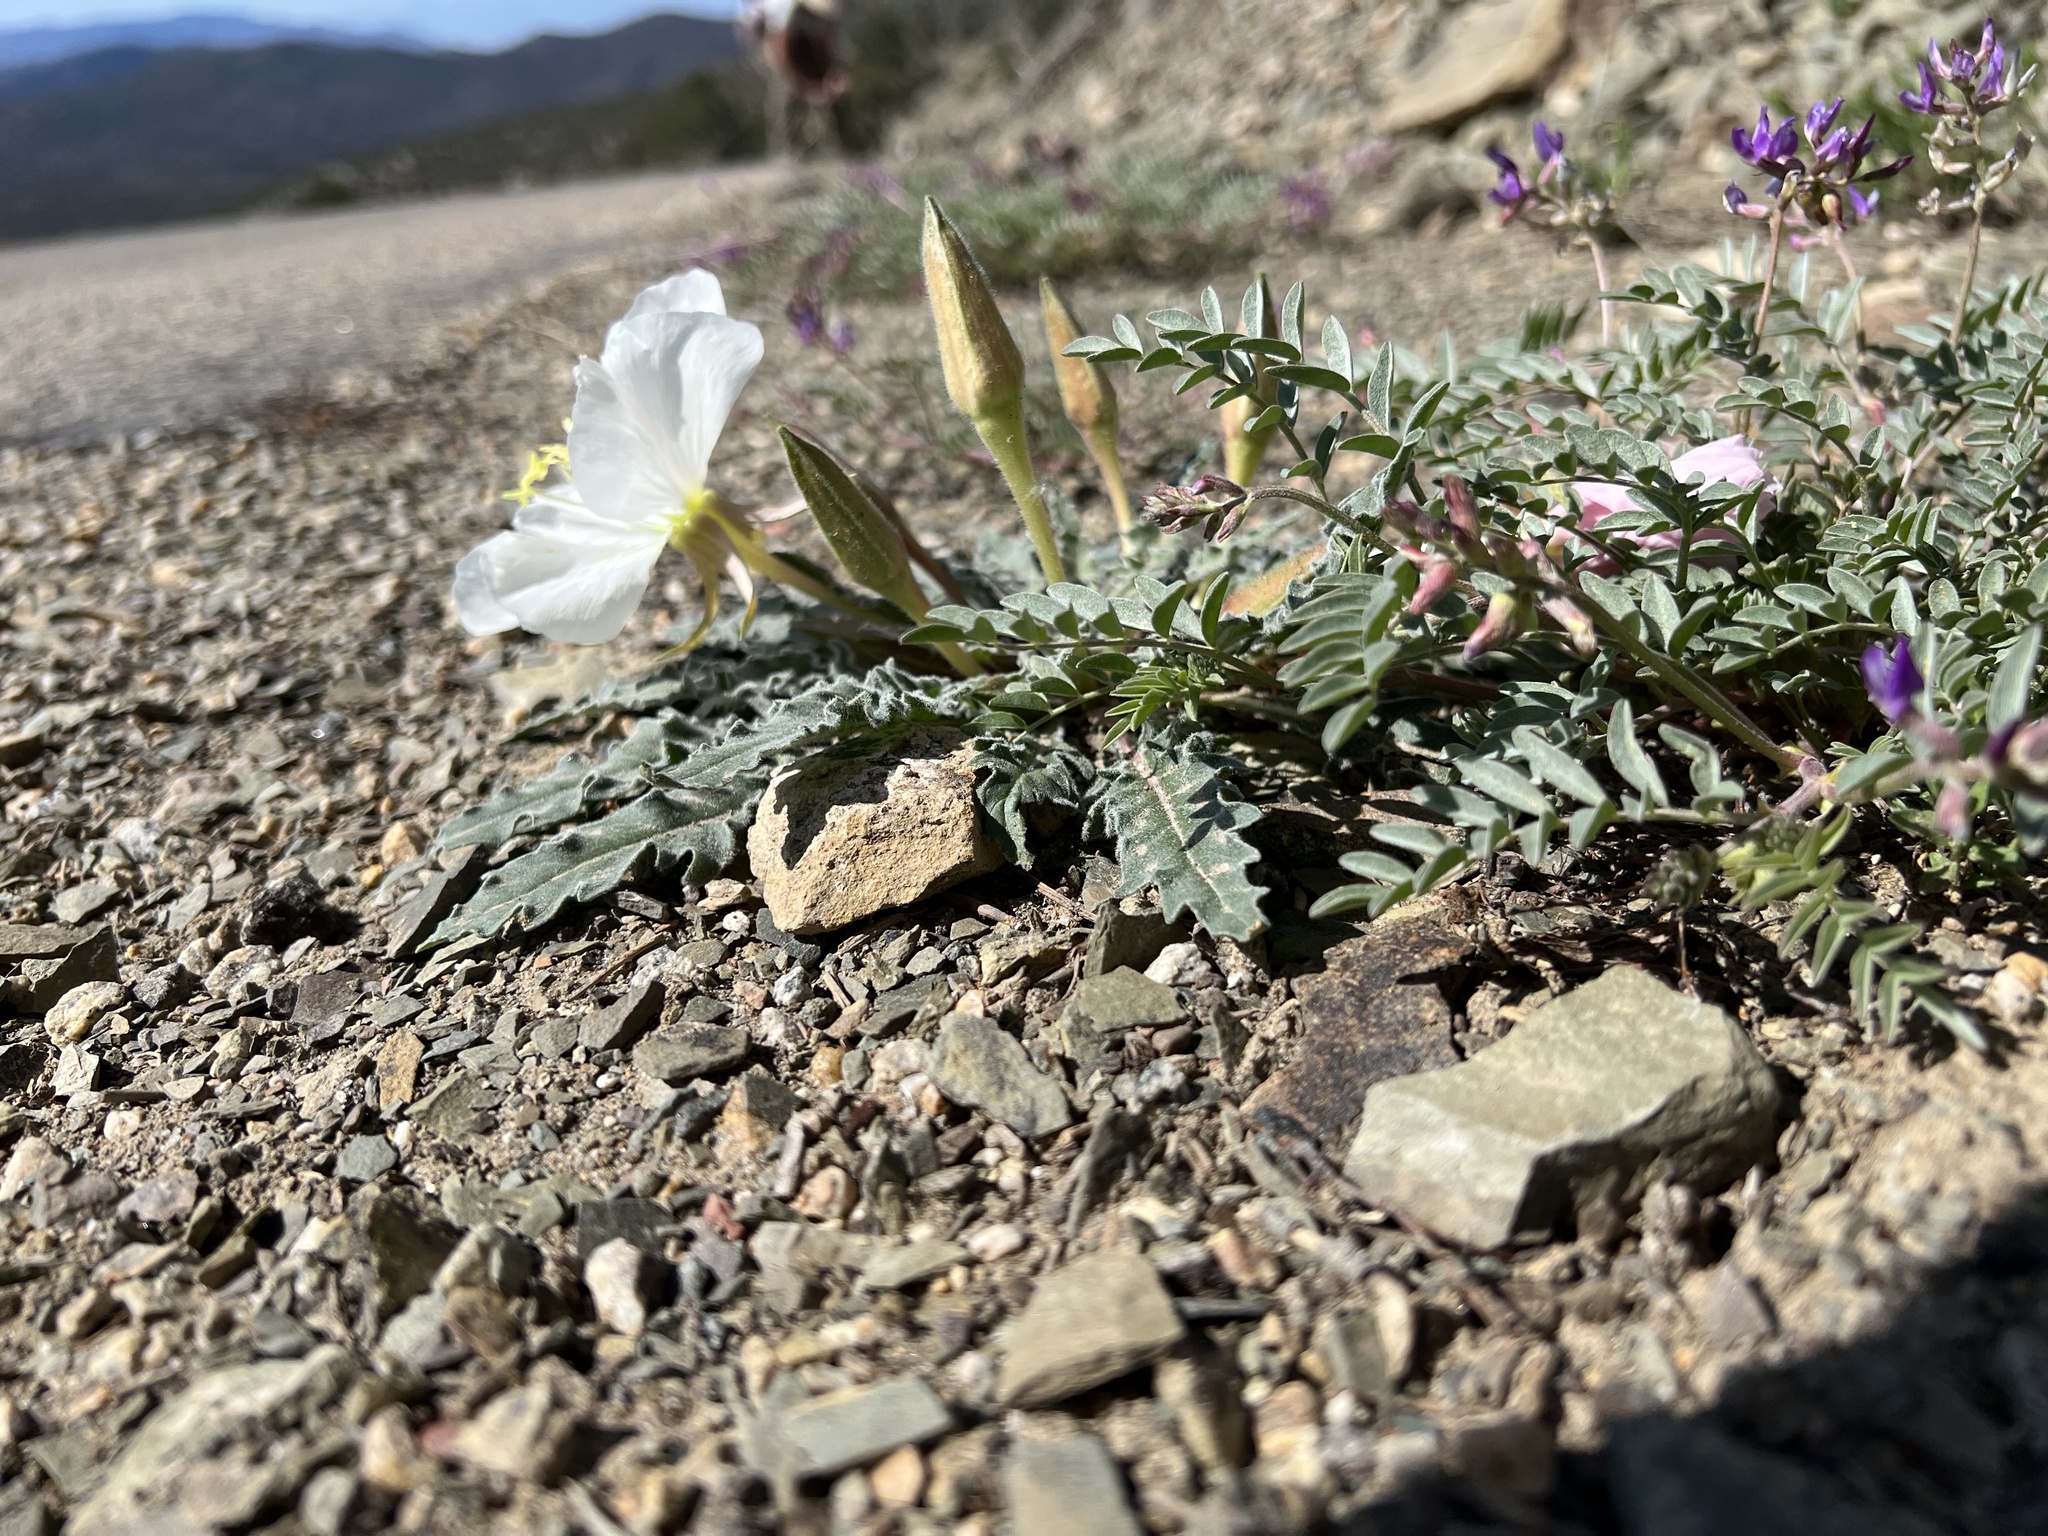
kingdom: Plantae
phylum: Tracheophyta
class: Magnoliopsida
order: Myrtales
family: Onagraceae
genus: Oenothera
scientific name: Oenothera cespitosa
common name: Tufted evening-primrose
